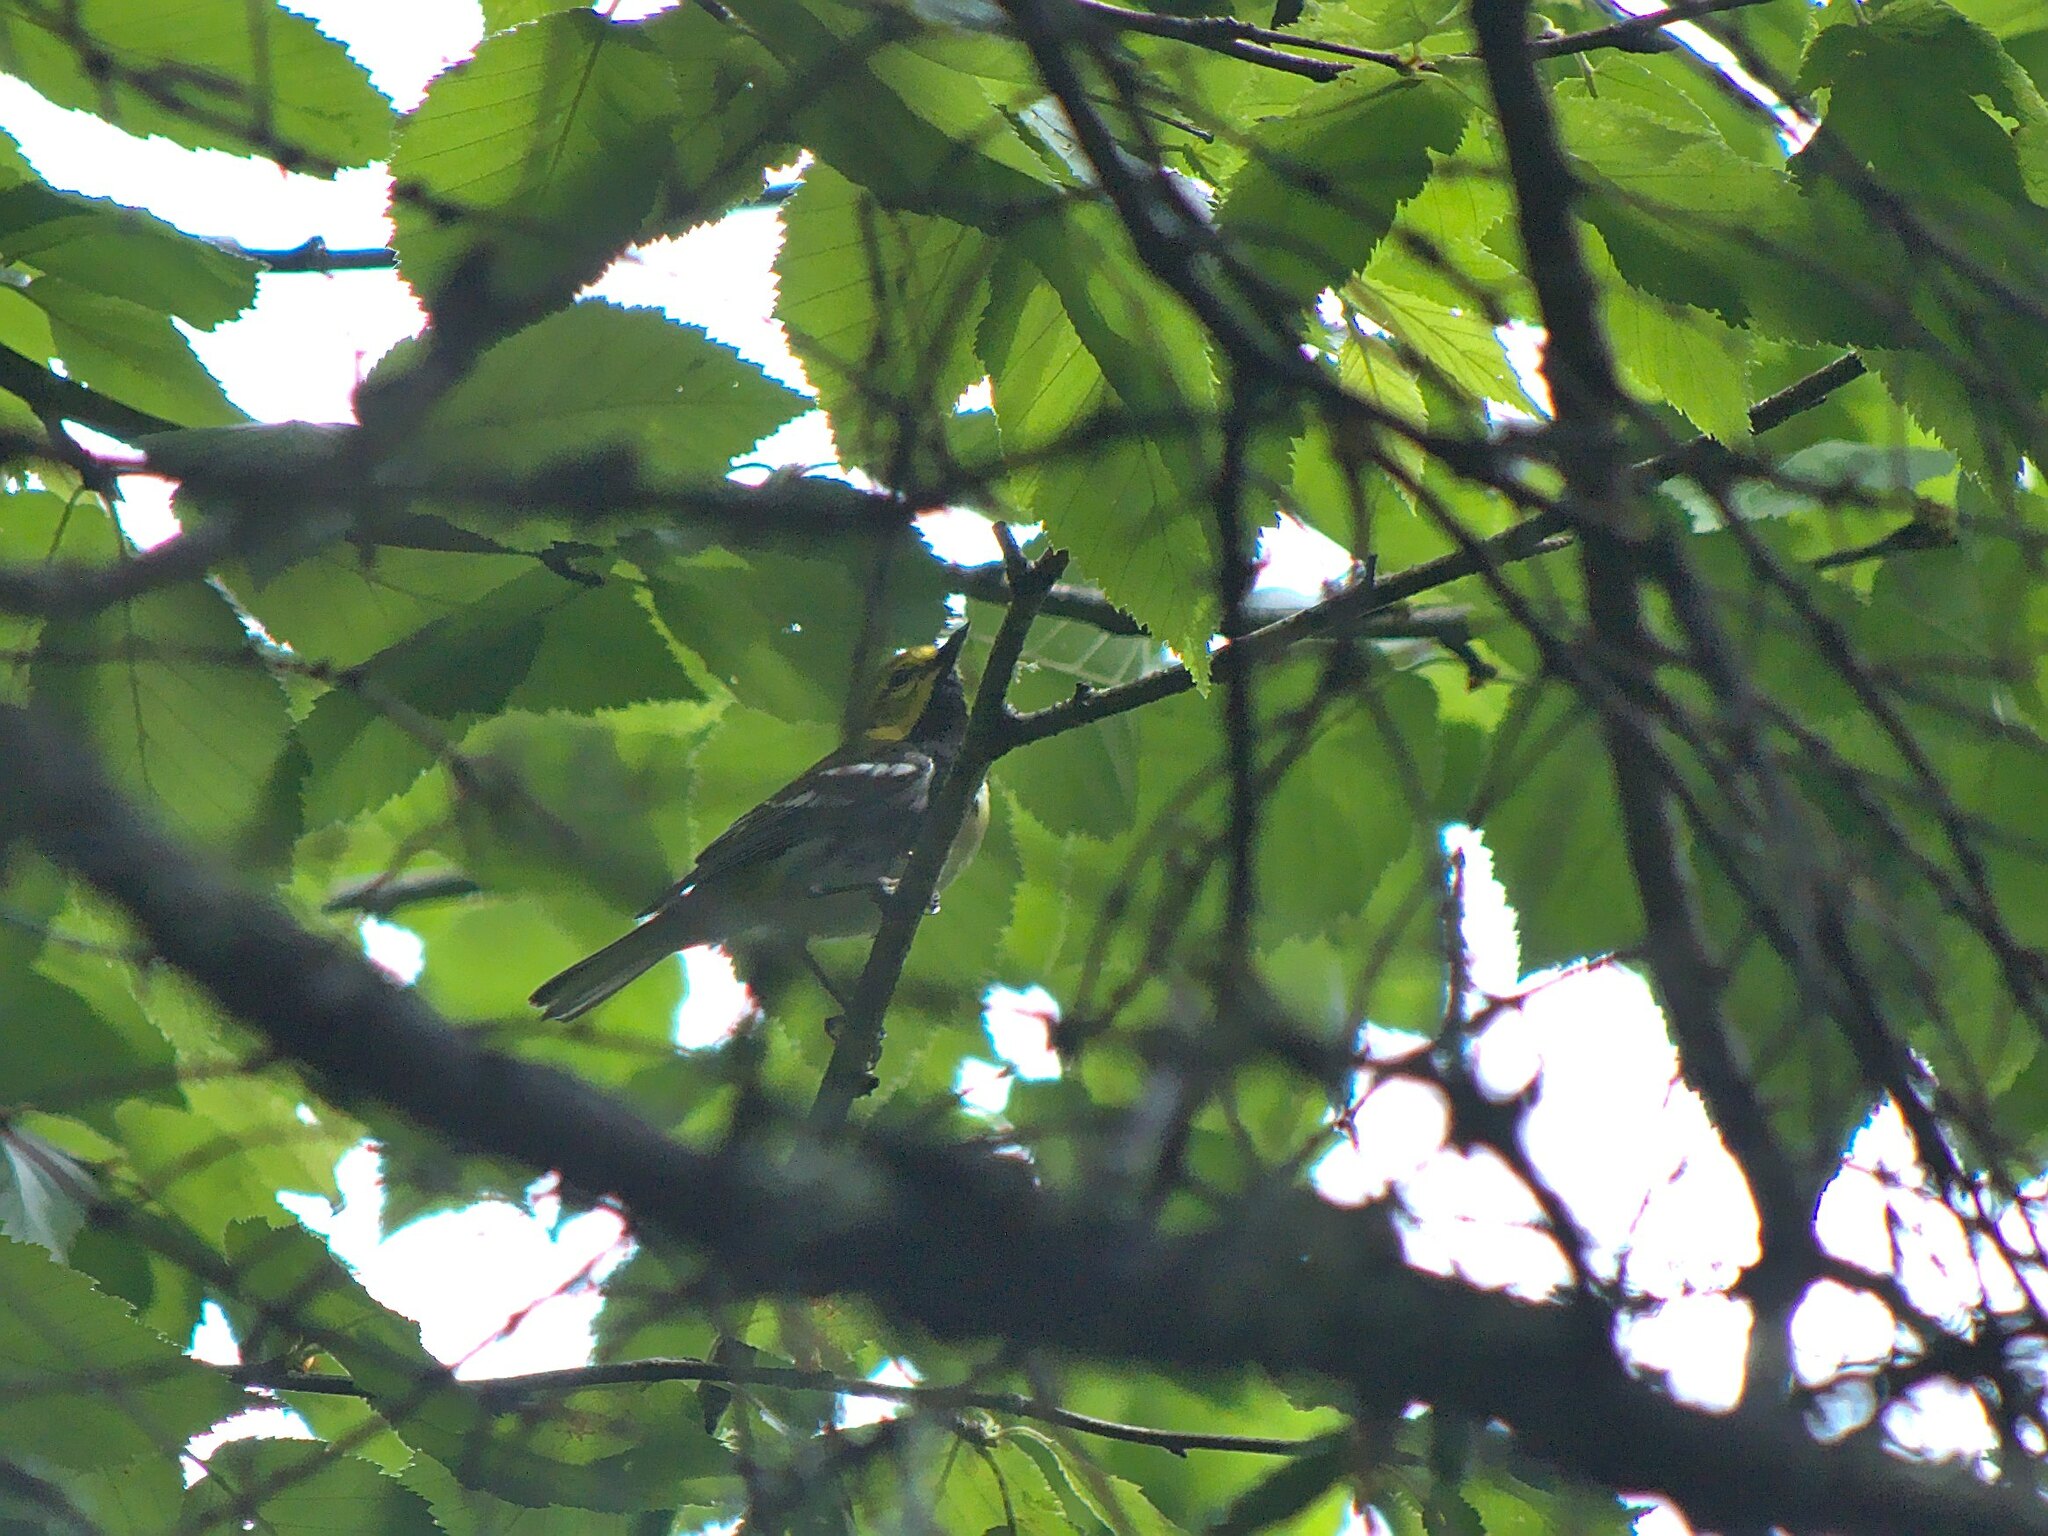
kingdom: Animalia
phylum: Chordata
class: Aves
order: Passeriformes
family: Parulidae
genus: Setophaga
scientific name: Setophaga virens
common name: Black-throated green warbler
